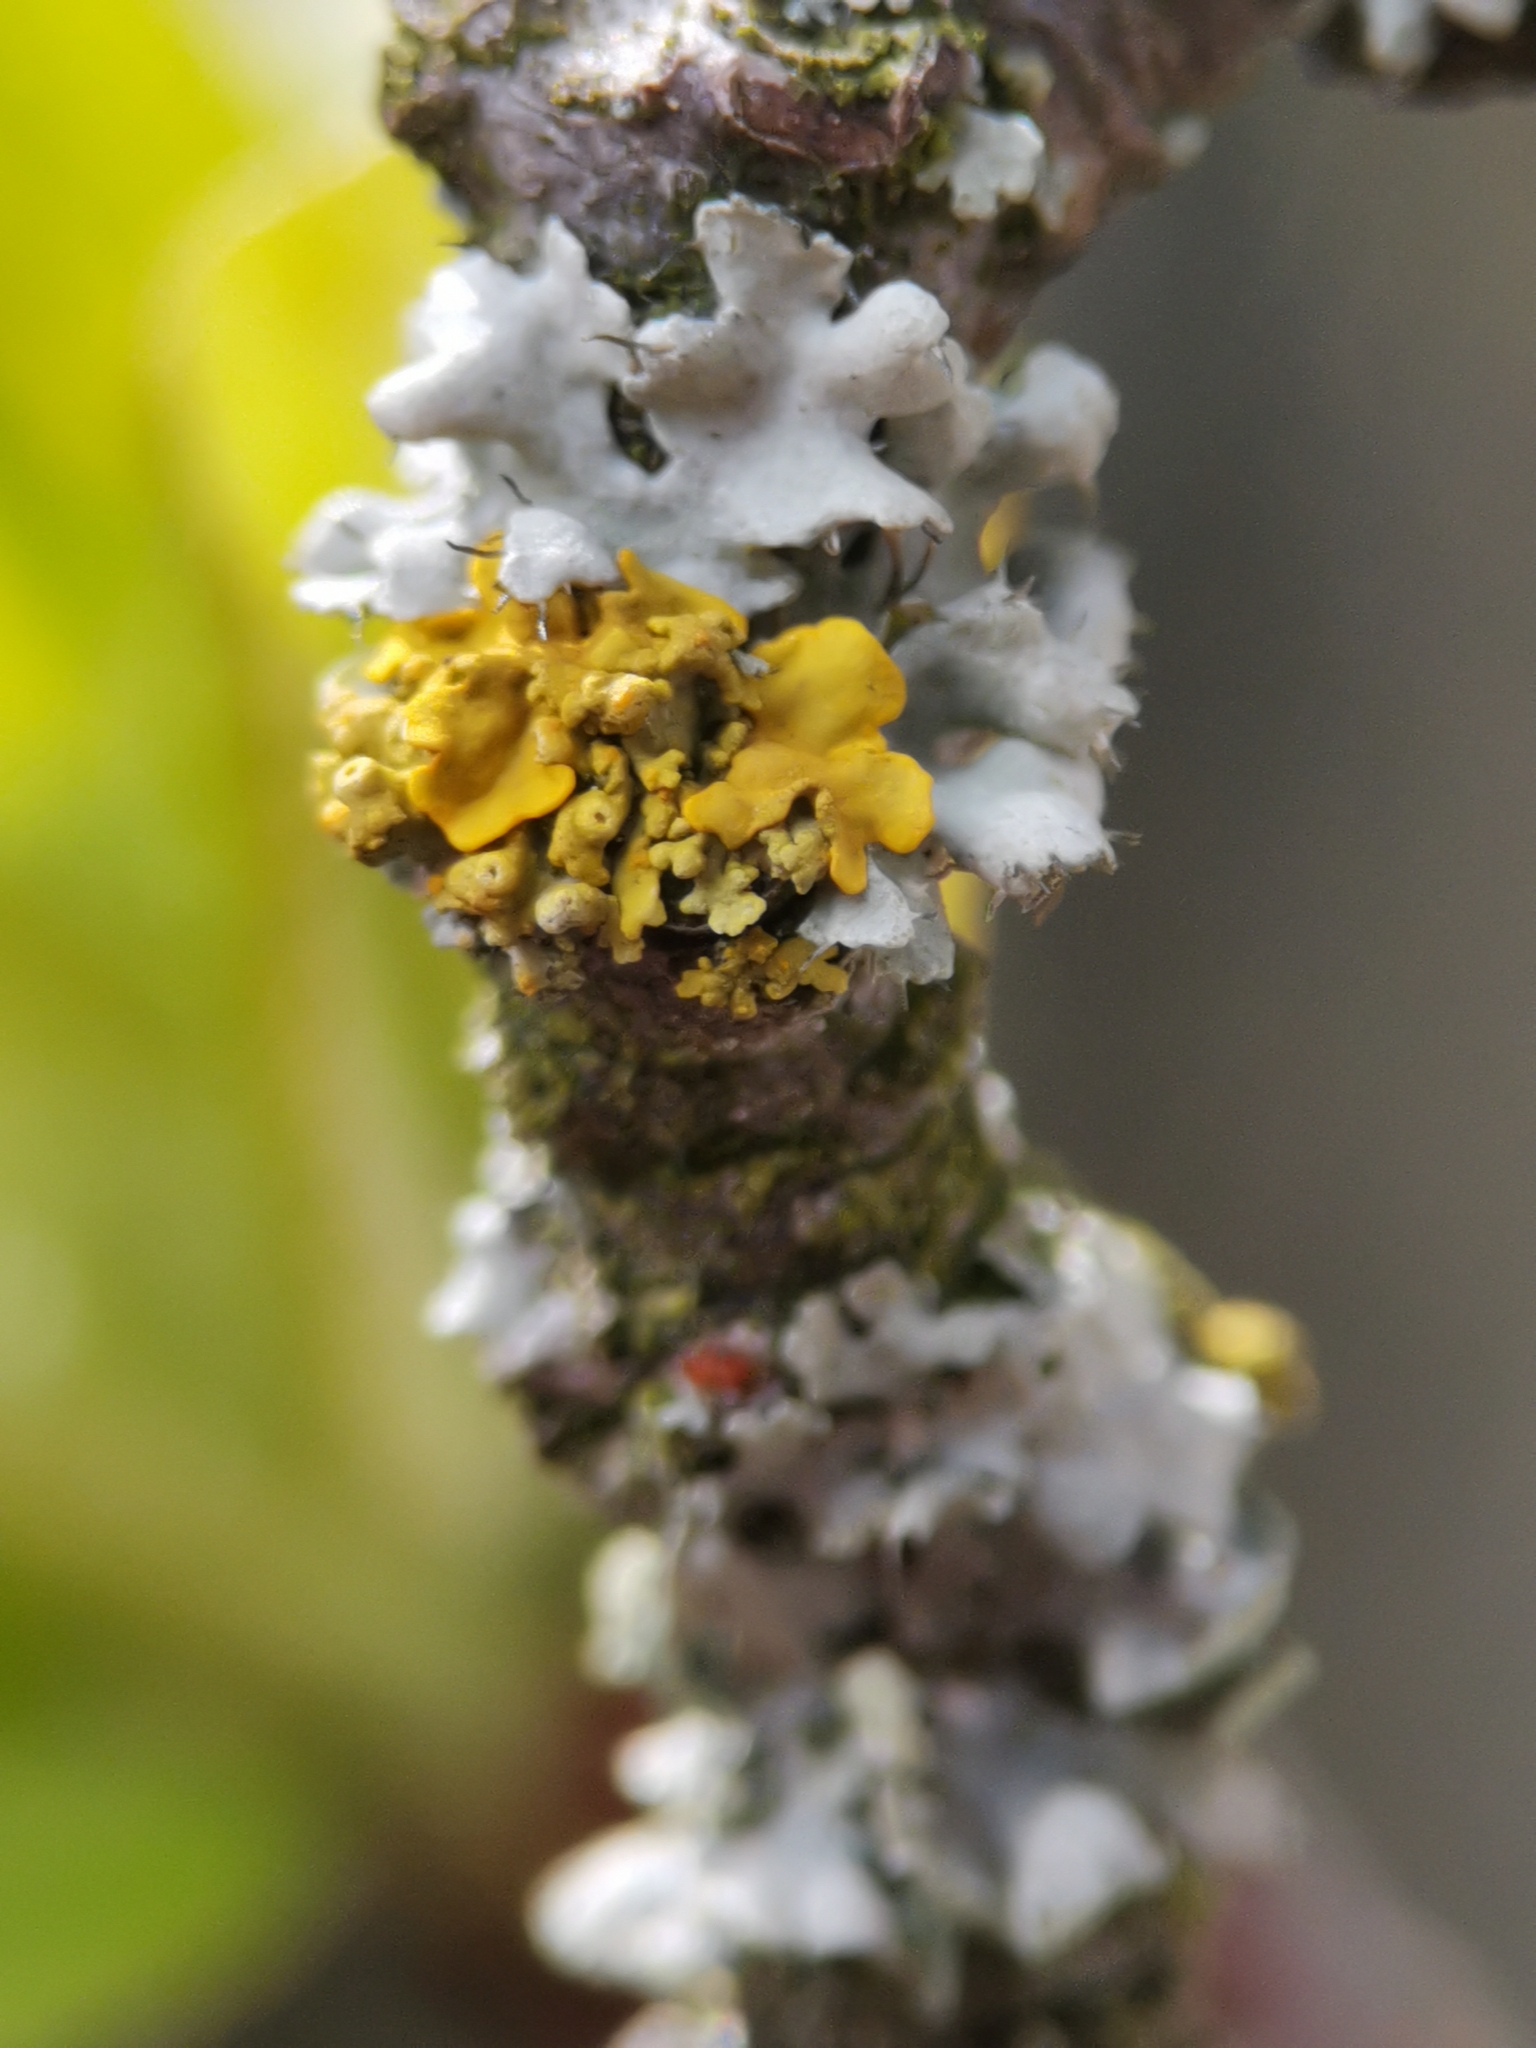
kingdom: Fungi
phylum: Ascomycota
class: Lecanoromycetes
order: Teloschistales
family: Teloschistaceae
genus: Polycauliona
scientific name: Polycauliona polycarpa
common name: Pin-cushion sunburst lichen
